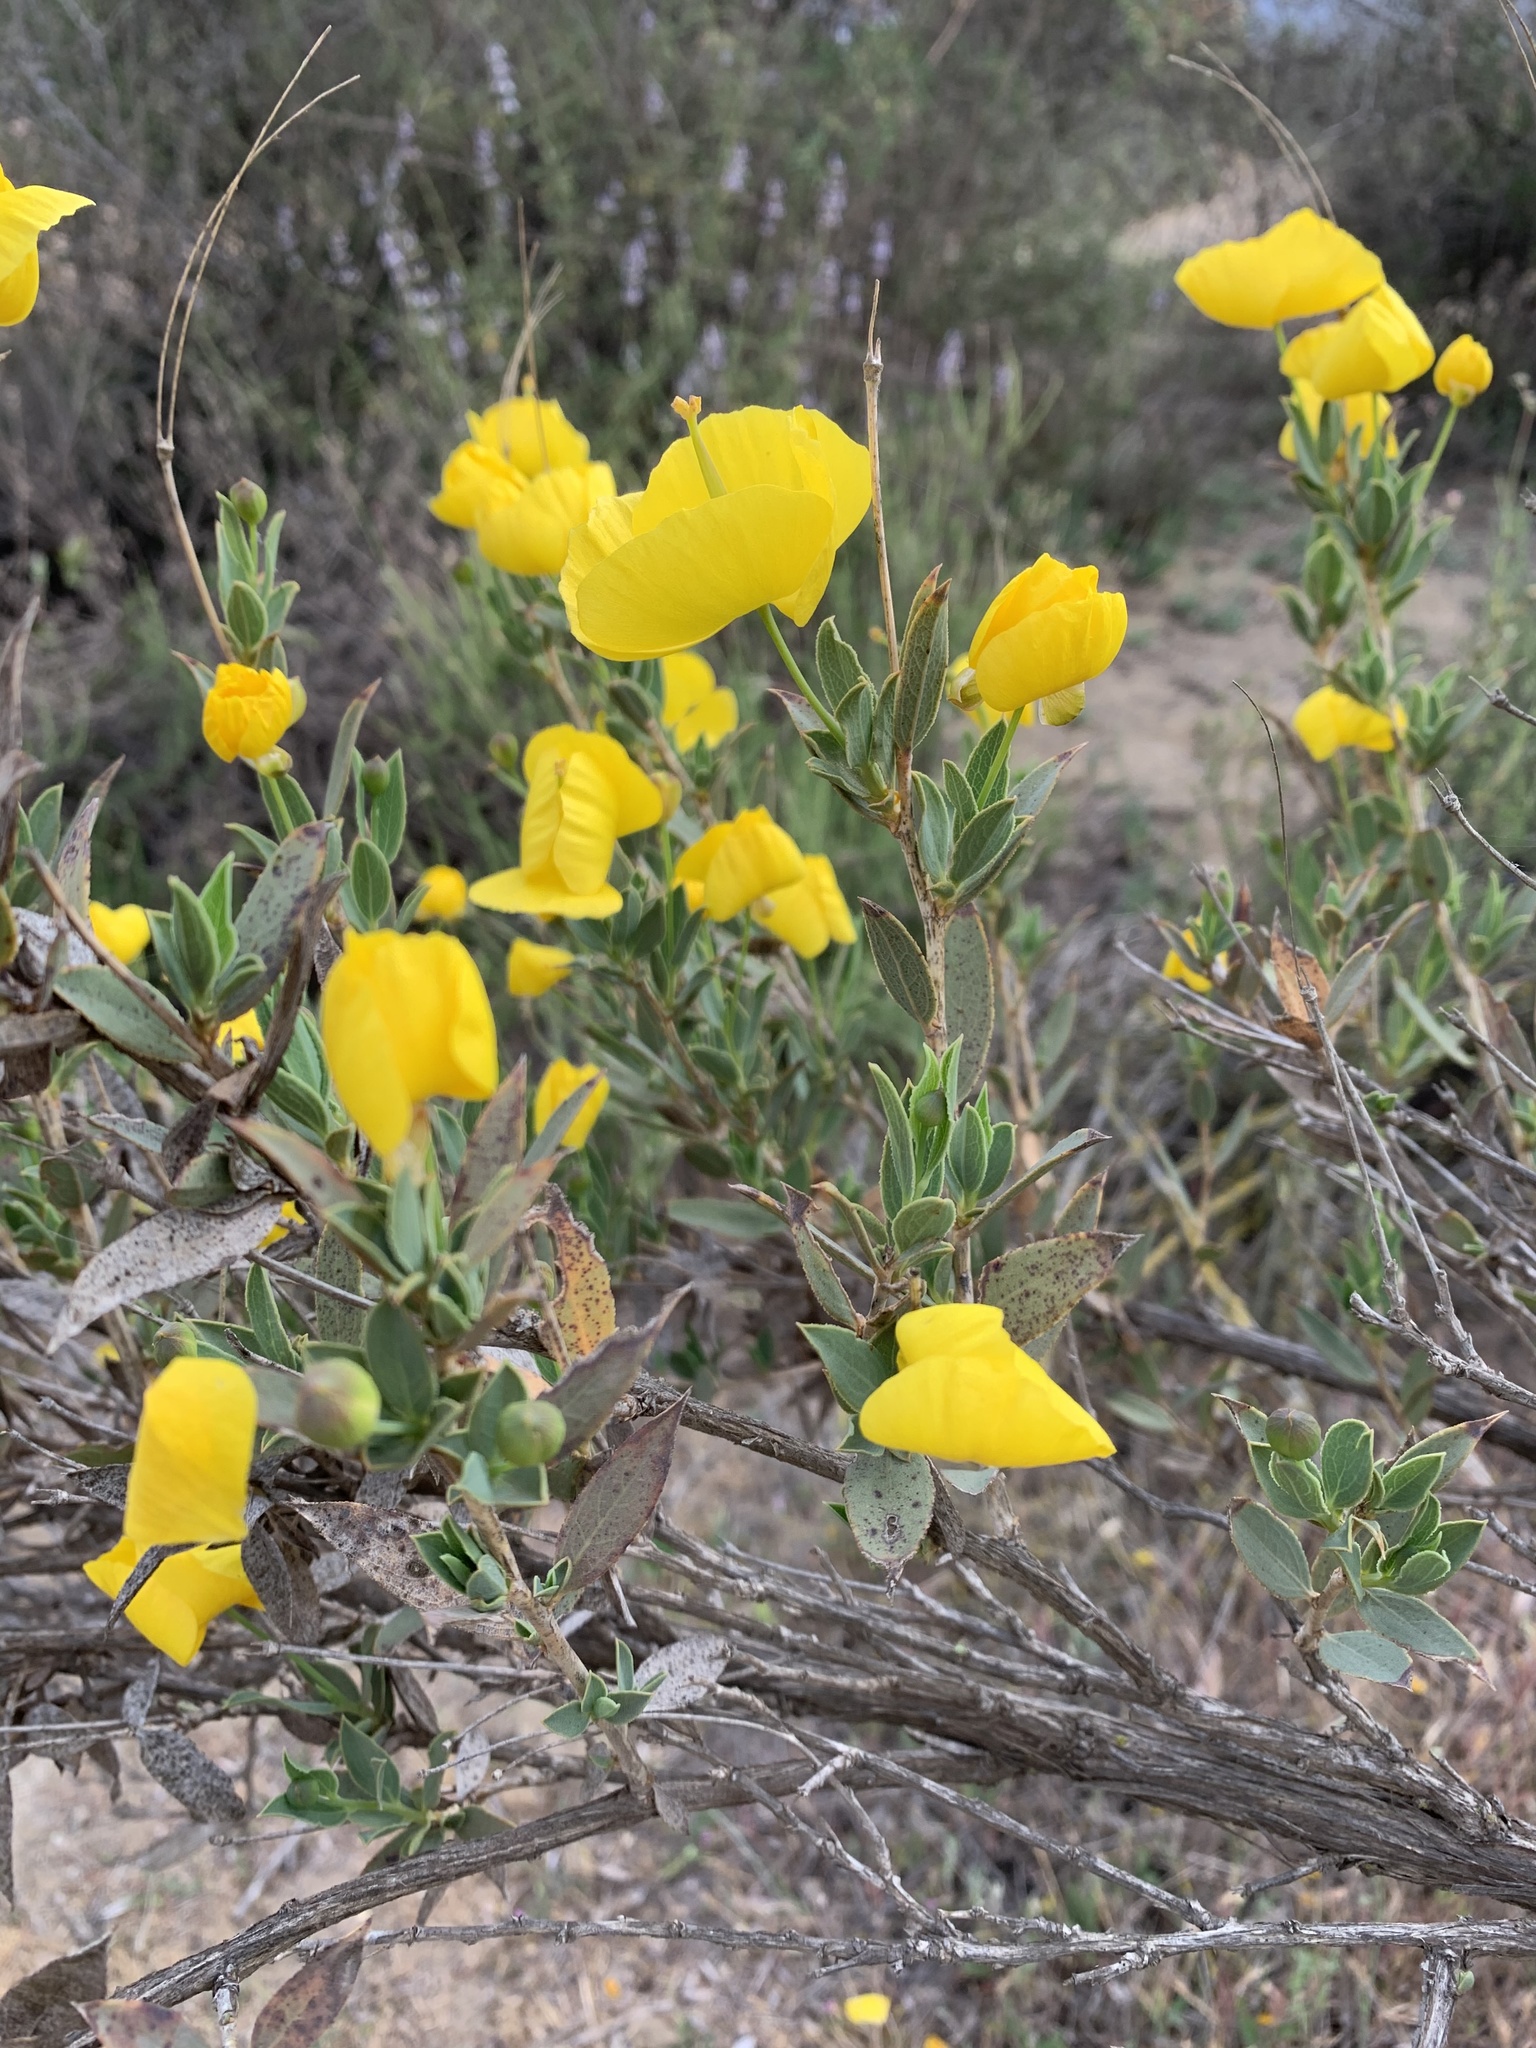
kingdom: Plantae
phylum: Tracheophyta
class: Magnoliopsida
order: Ranunculales
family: Papaveraceae
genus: Dendromecon
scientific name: Dendromecon rigida
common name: Tree poppy
